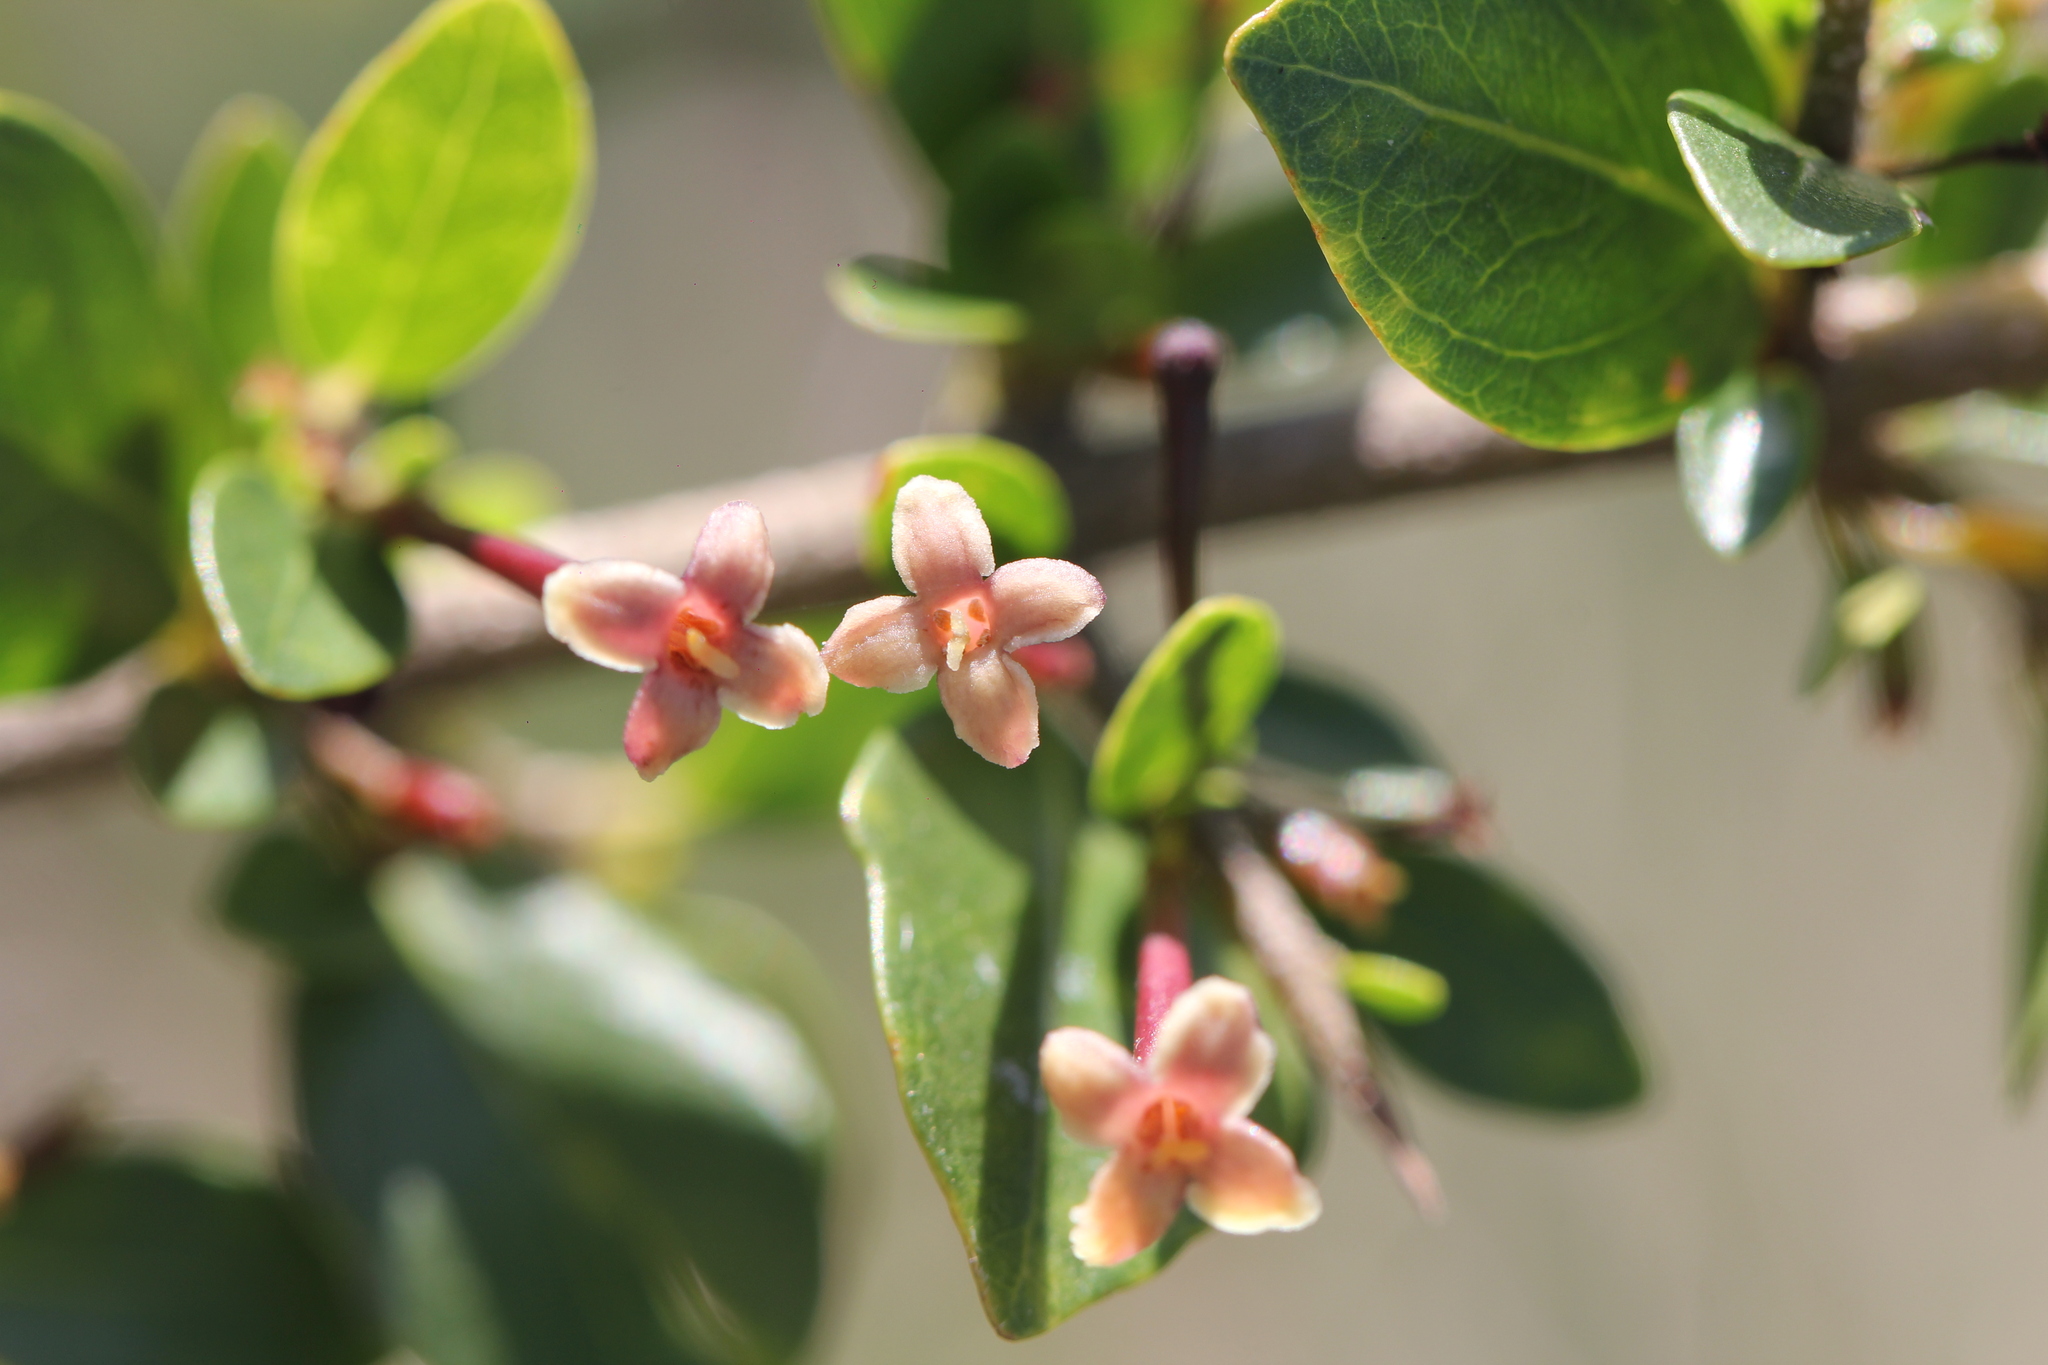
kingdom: Plantae
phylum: Tracheophyta
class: Magnoliopsida
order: Gentianales
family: Rubiaceae
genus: Chomelia
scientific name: Chomelia obtusa
